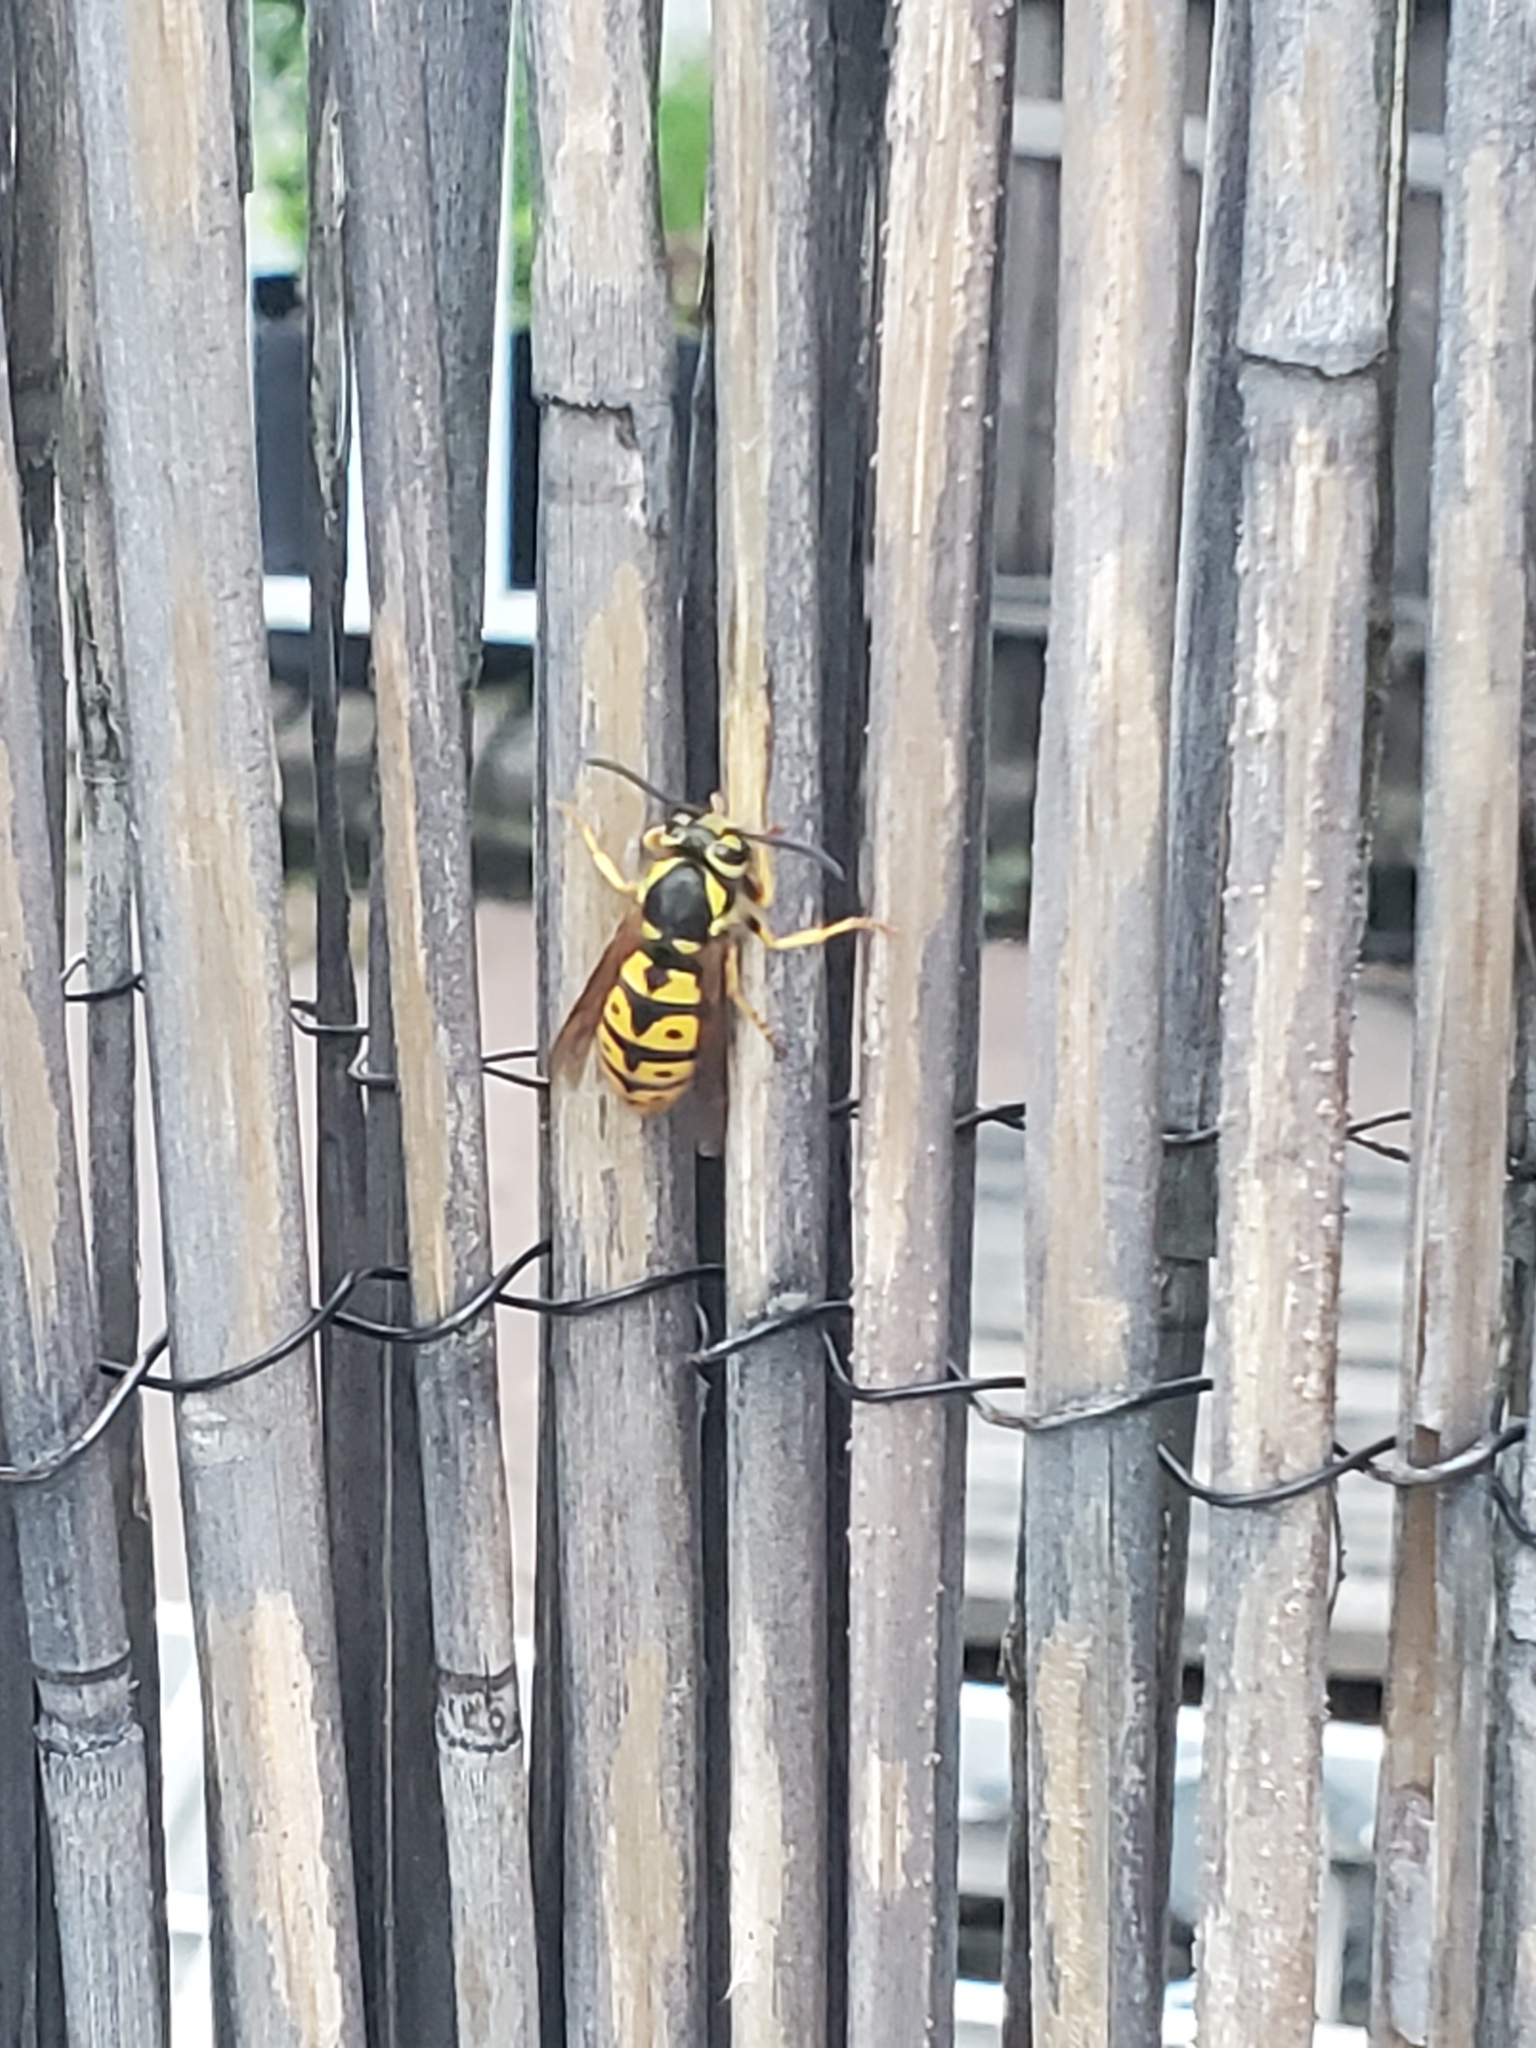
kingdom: Animalia
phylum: Arthropoda
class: Insecta
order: Hymenoptera
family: Vespidae
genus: Vespula
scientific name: Vespula pensylvanica
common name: Western yellowjacket
